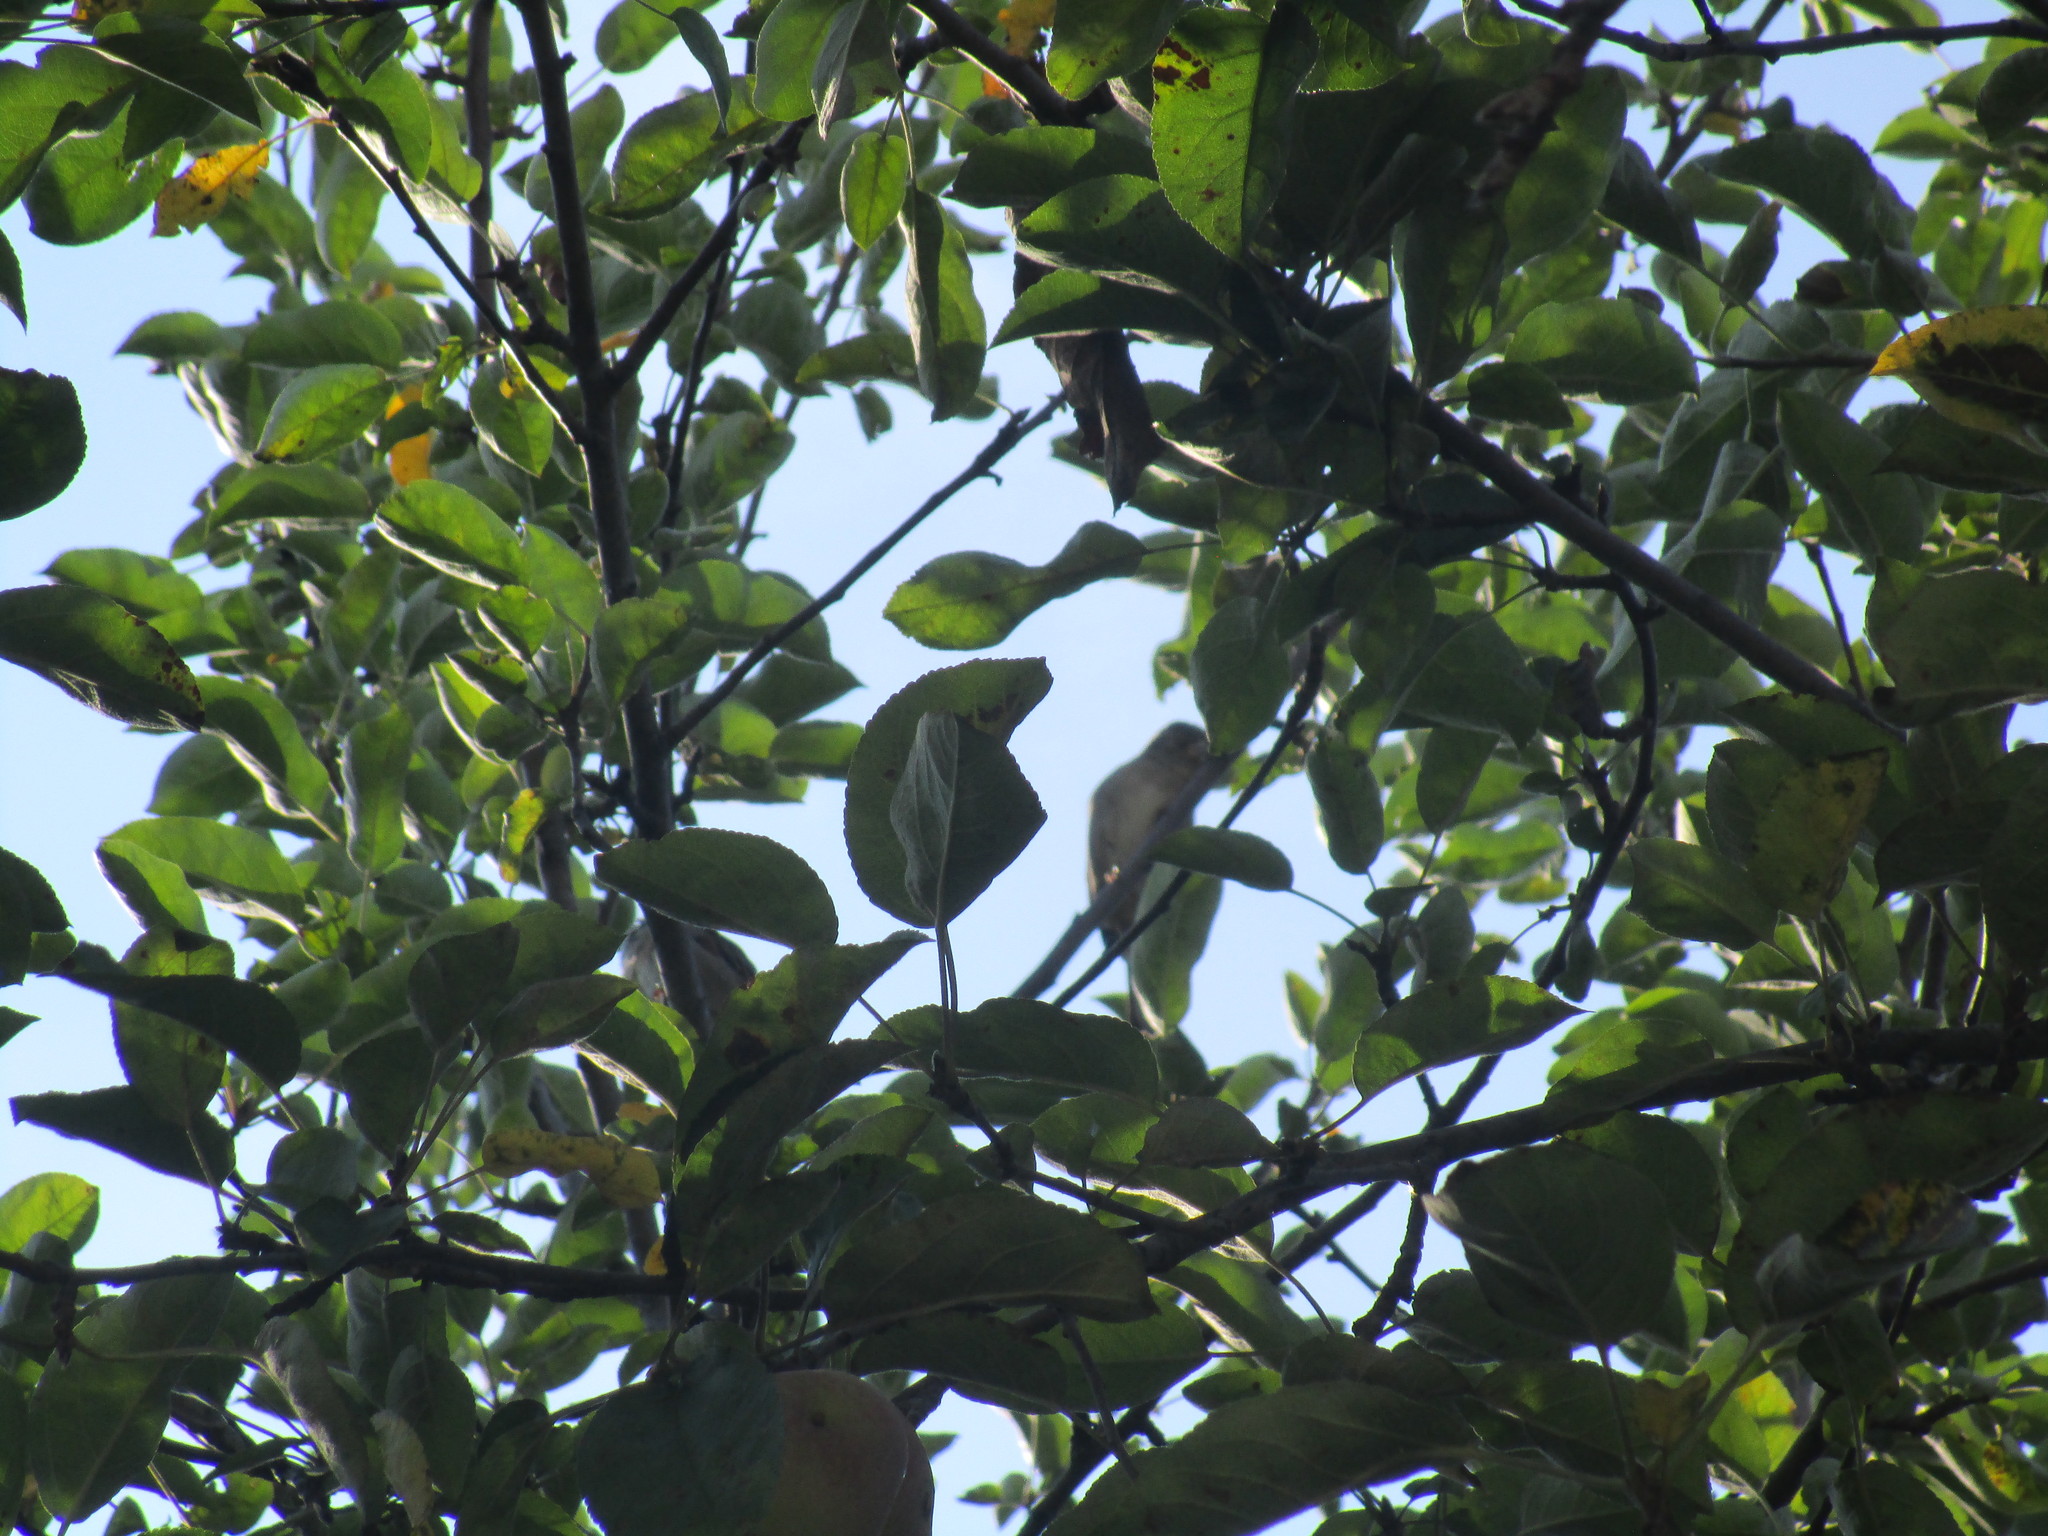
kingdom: Animalia
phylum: Chordata
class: Aves
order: Passeriformes
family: Passeridae
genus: Passer
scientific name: Passer domesticus
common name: House sparrow
